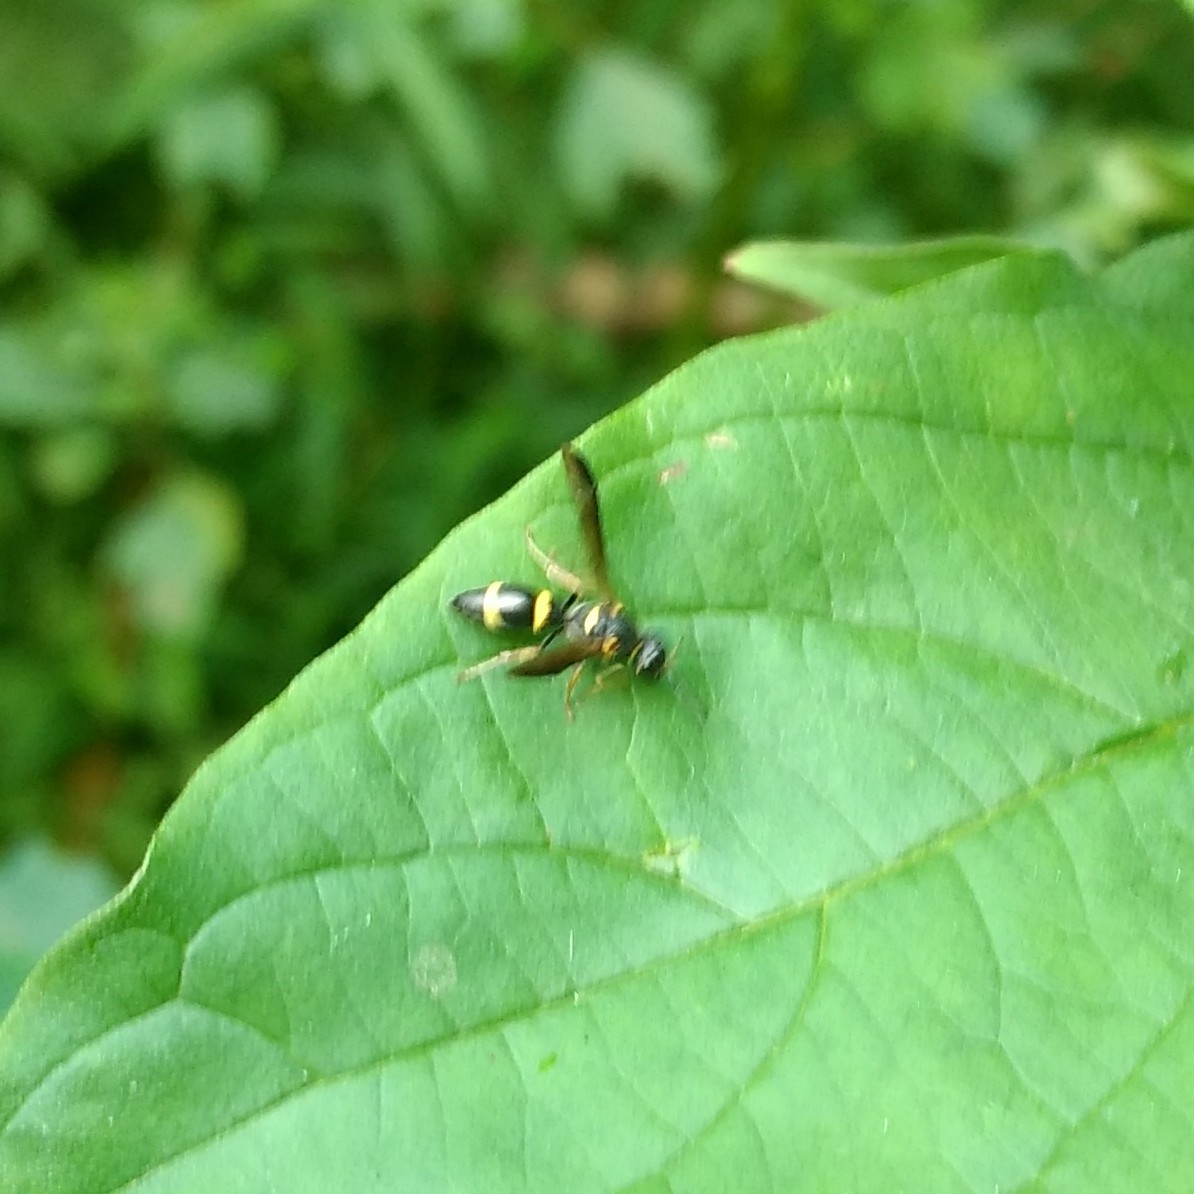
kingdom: Animalia
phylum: Arthropoda
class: Insecta
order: Hymenoptera
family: Eumenidae
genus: Parancistrocerus
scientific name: Parancistrocerus perennis
